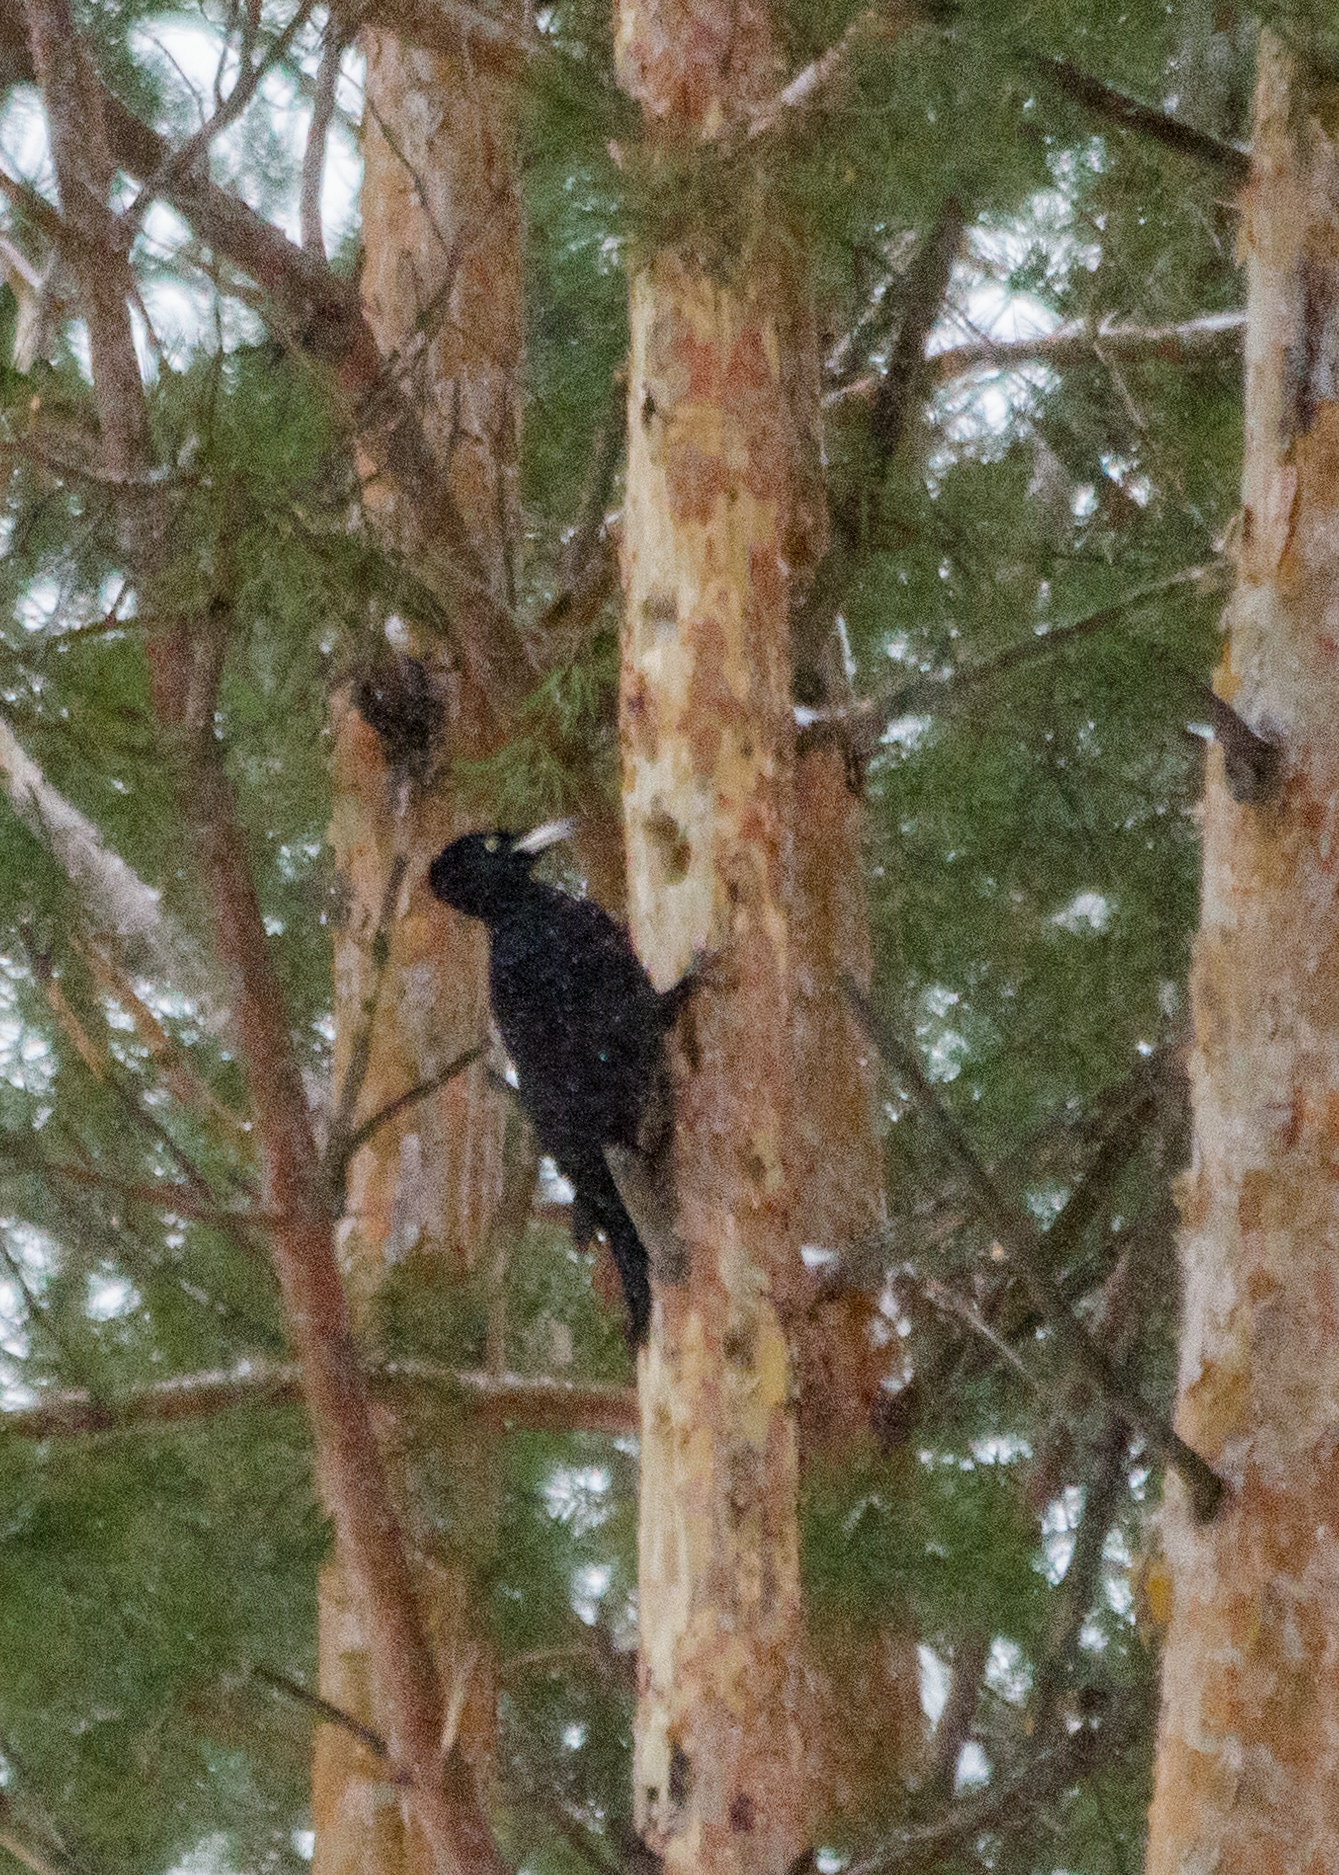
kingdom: Animalia
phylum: Chordata
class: Aves
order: Piciformes
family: Picidae
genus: Dryocopus
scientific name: Dryocopus martius
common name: Black woodpecker
